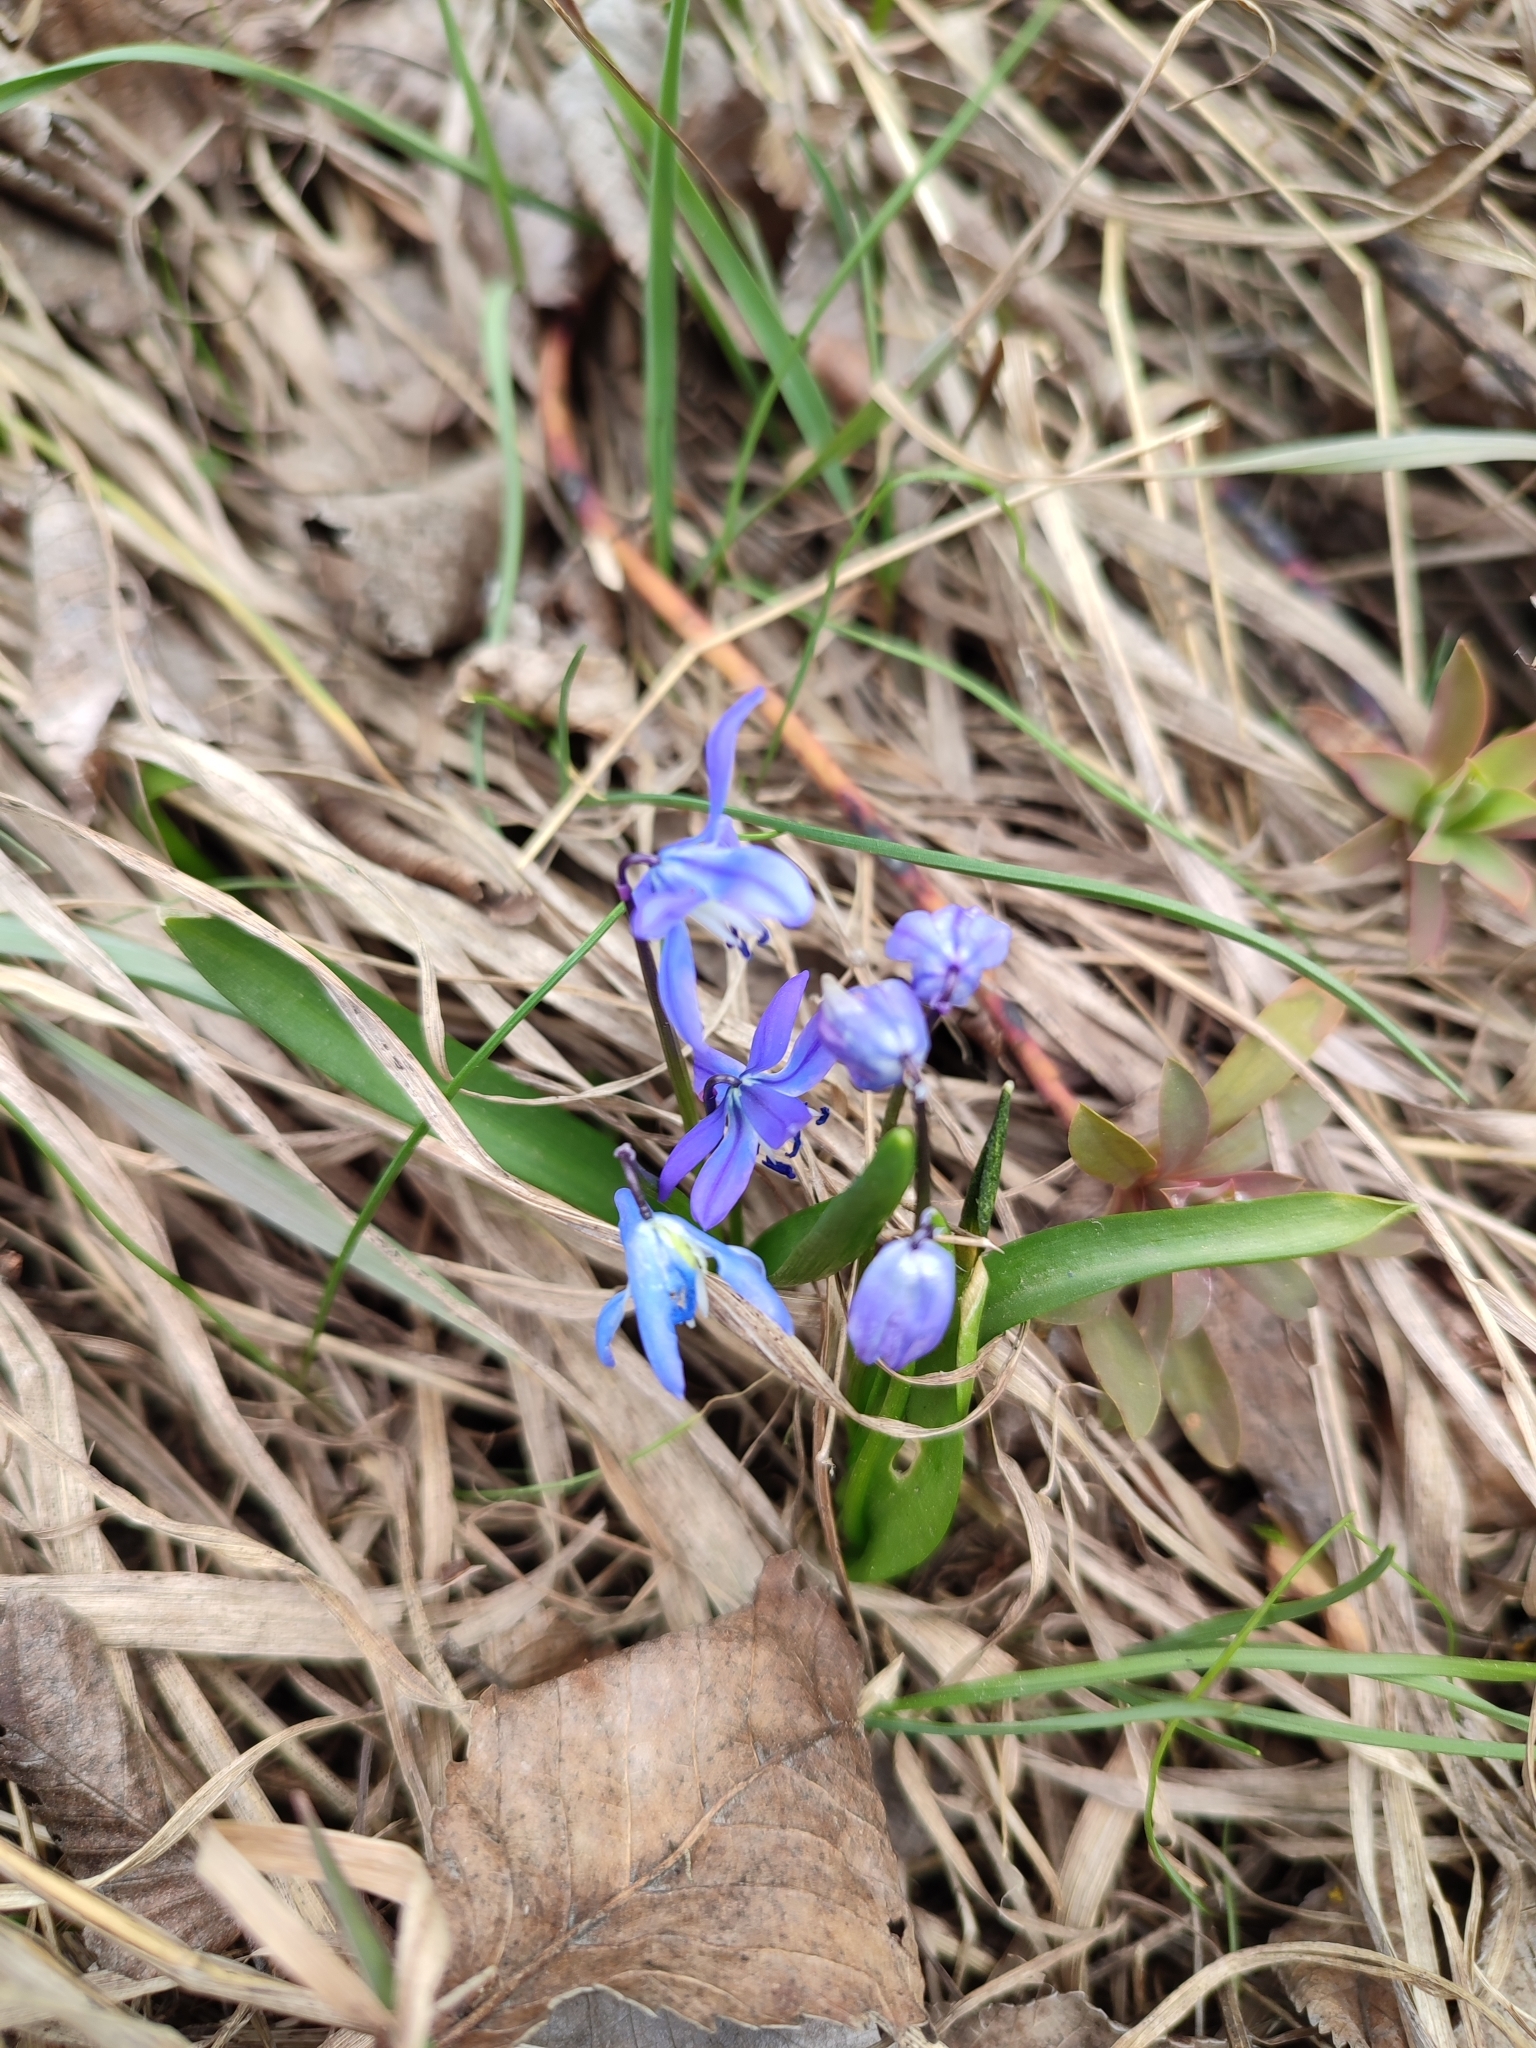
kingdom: Plantae
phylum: Tracheophyta
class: Liliopsida
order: Asparagales
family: Asparagaceae
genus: Scilla
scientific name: Scilla siberica
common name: Siberian squill
